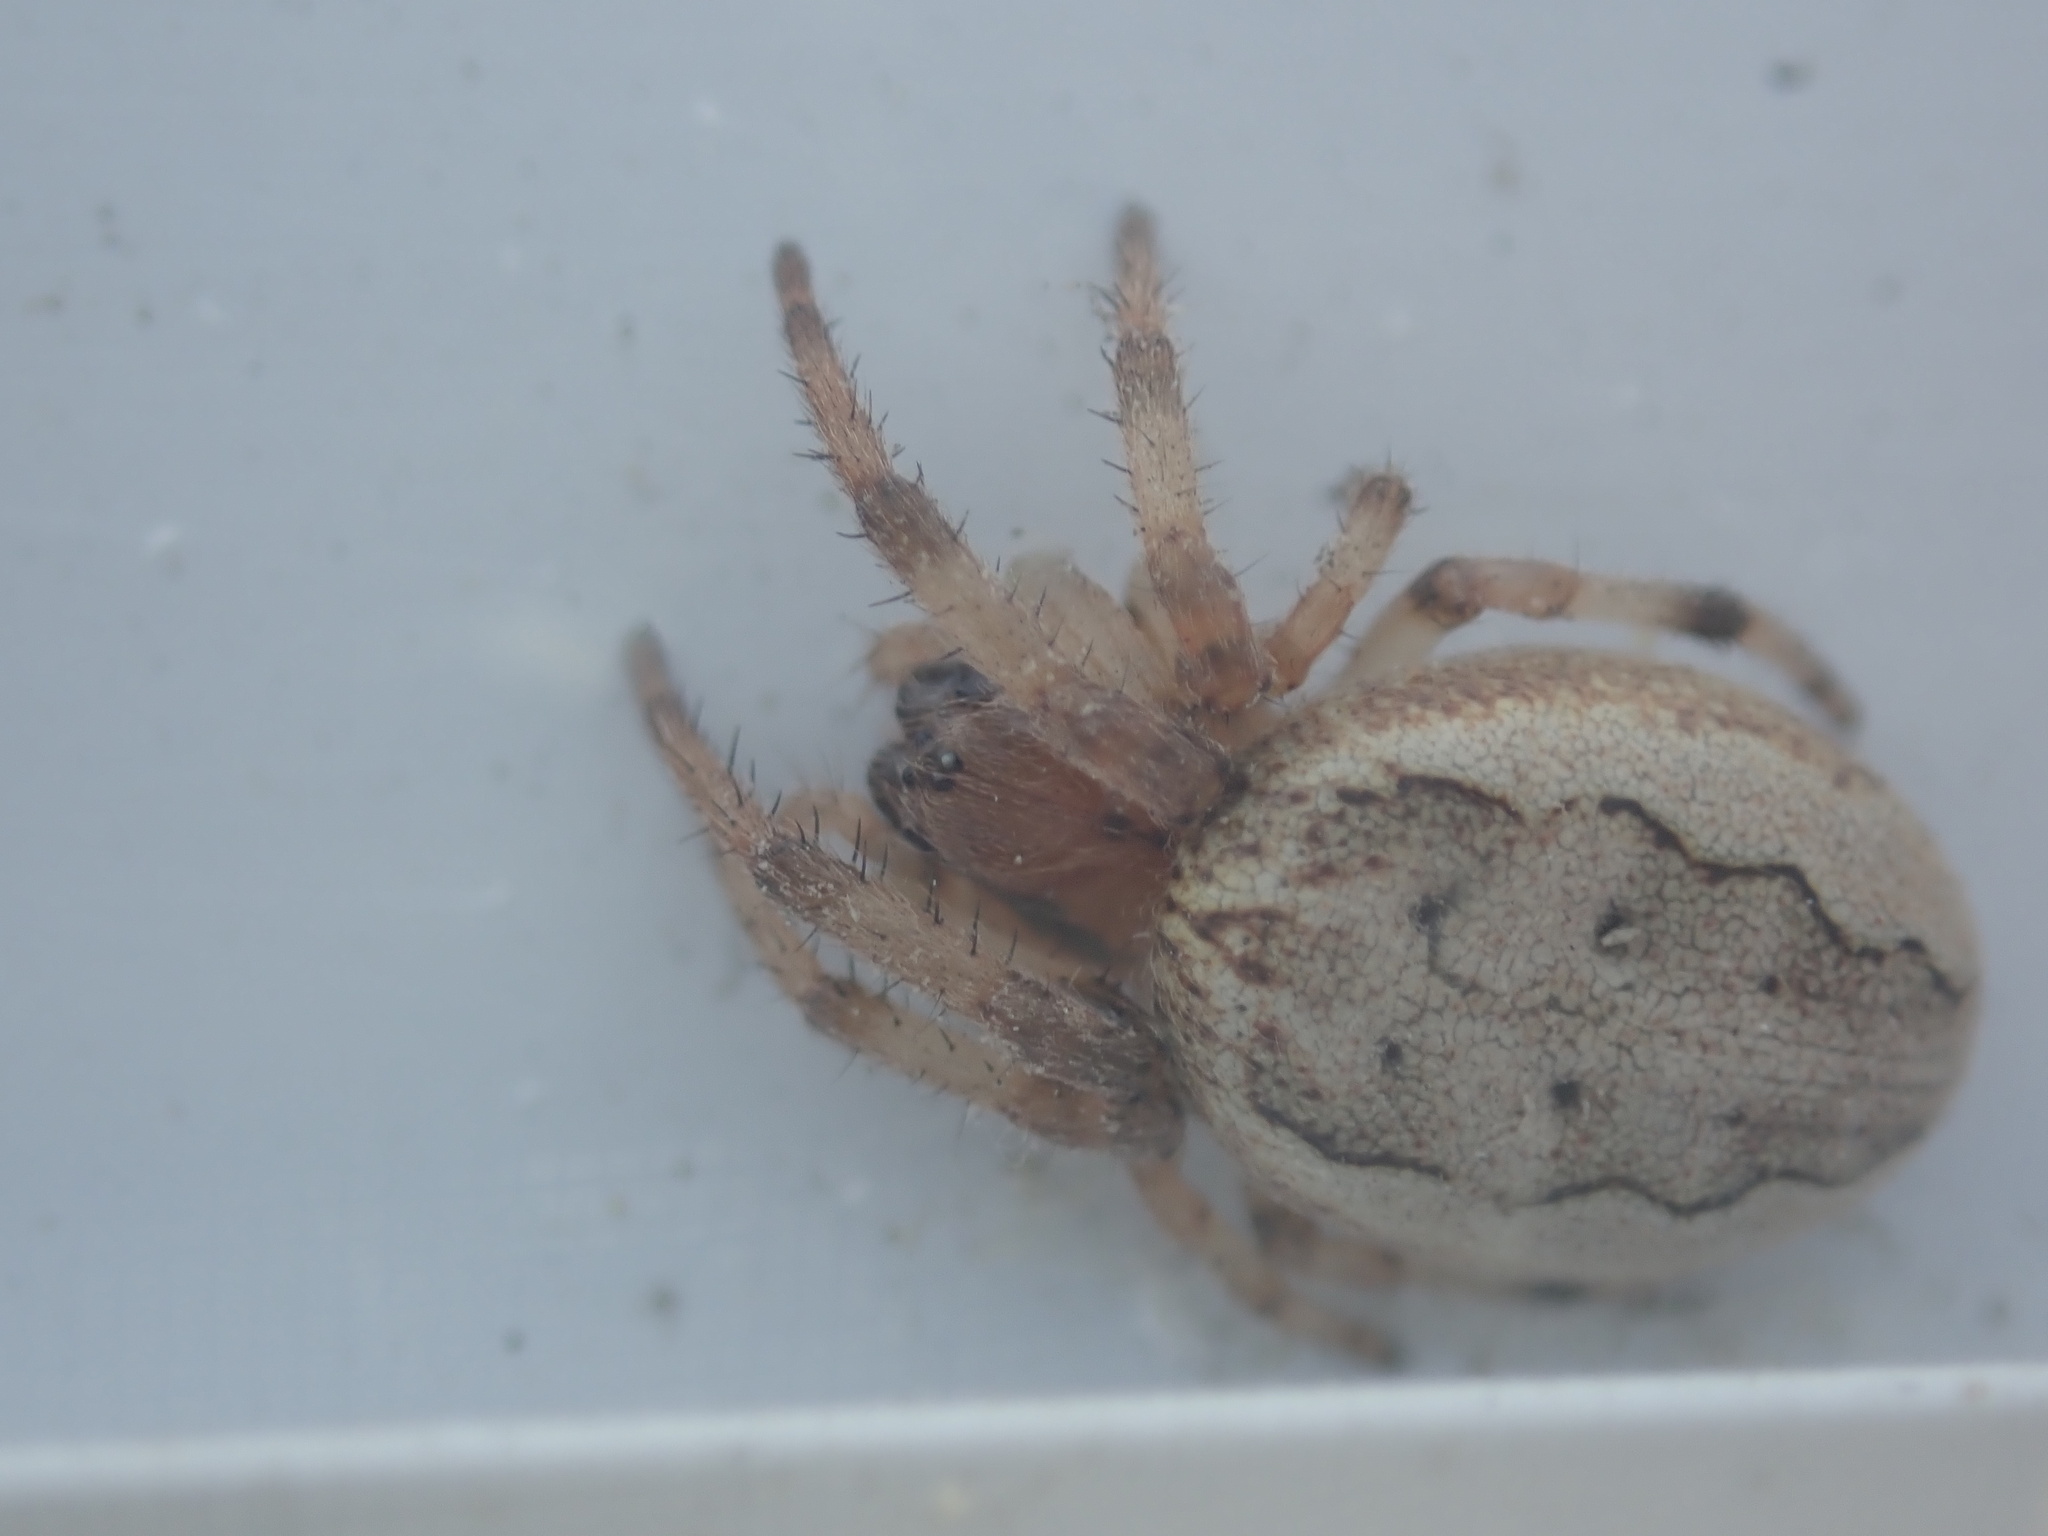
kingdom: Animalia
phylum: Arthropoda
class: Arachnida
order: Araneae
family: Araneidae
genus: Larinioides
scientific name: Larinioides cornutus
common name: Furrow orbweaver
